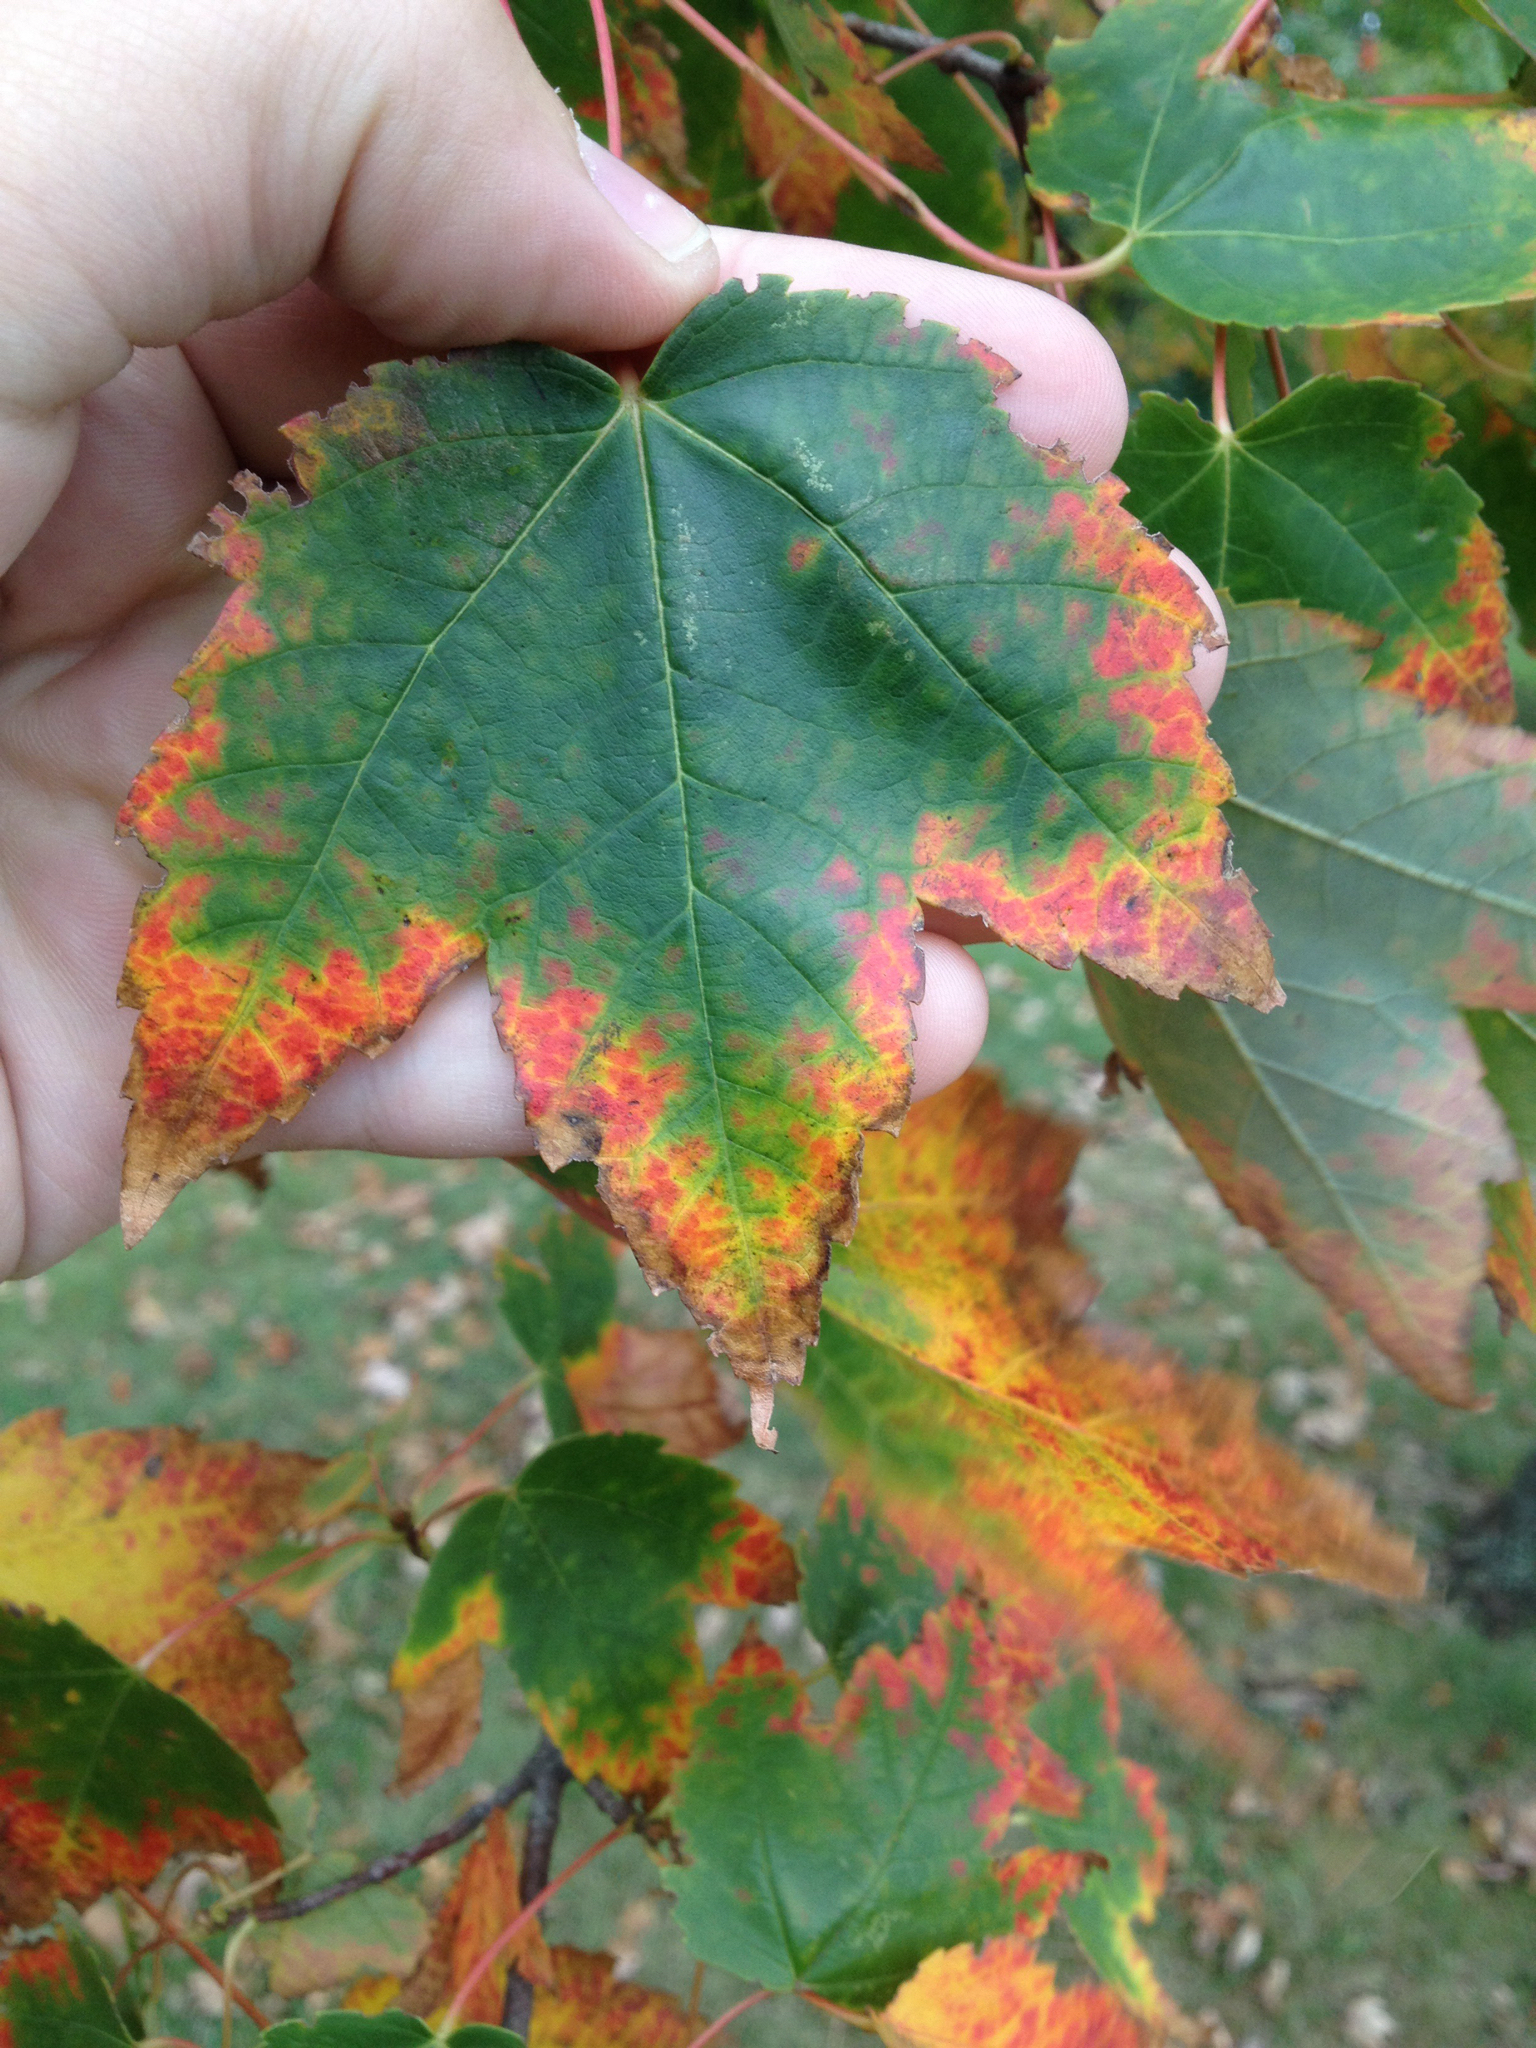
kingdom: Plantae
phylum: Tracheophyta
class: Magnoliopsida
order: Sapindales
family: Sapindaceae
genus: Acer
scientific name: Acer rubrum
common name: Red maple
